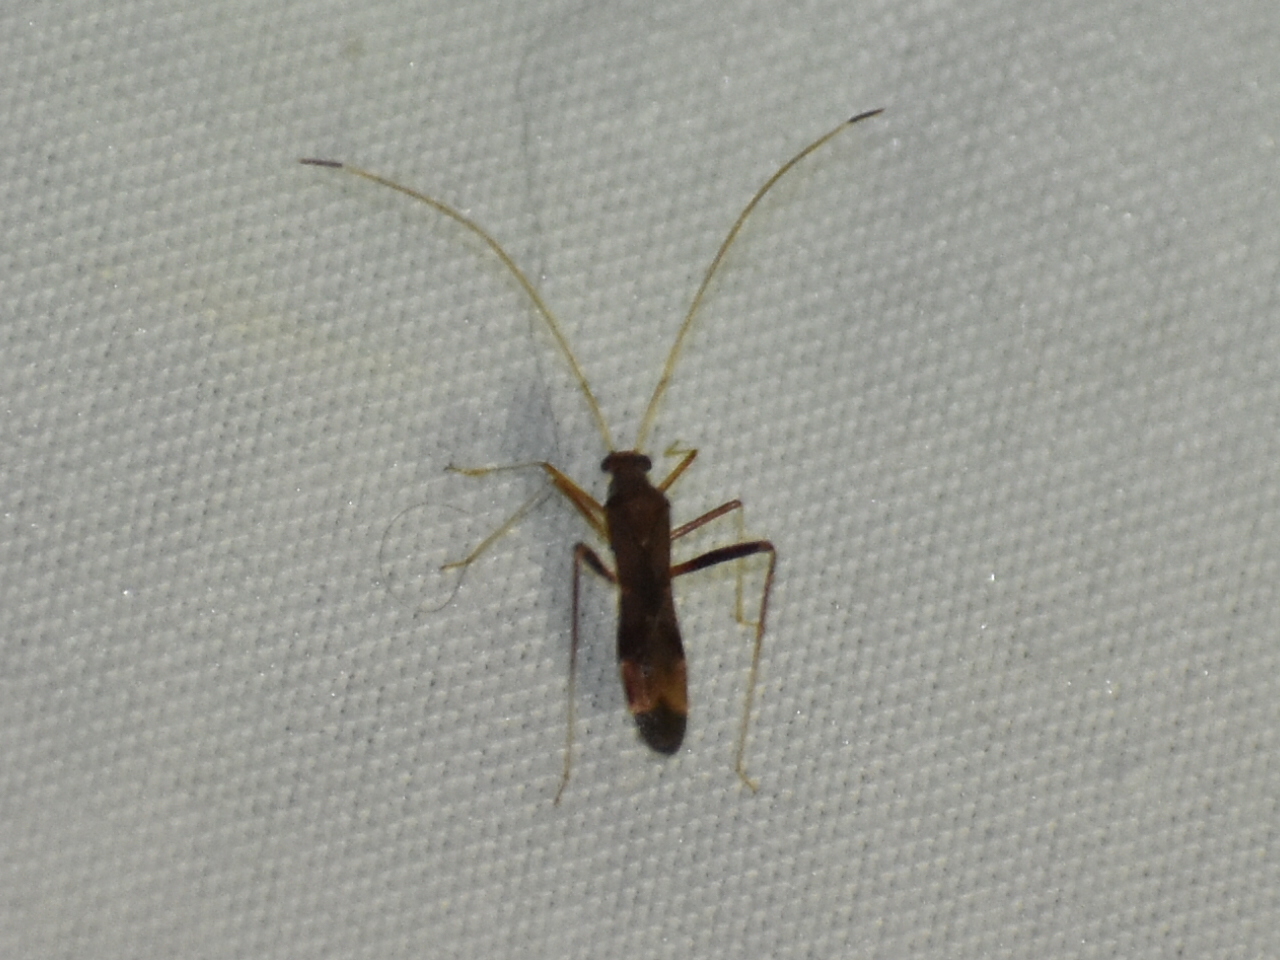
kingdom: Animalia
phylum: Arthropoda
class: Insecta
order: Hemiptera
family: Miridae
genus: Paraxenetus
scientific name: Paraxenetus guttulatus
